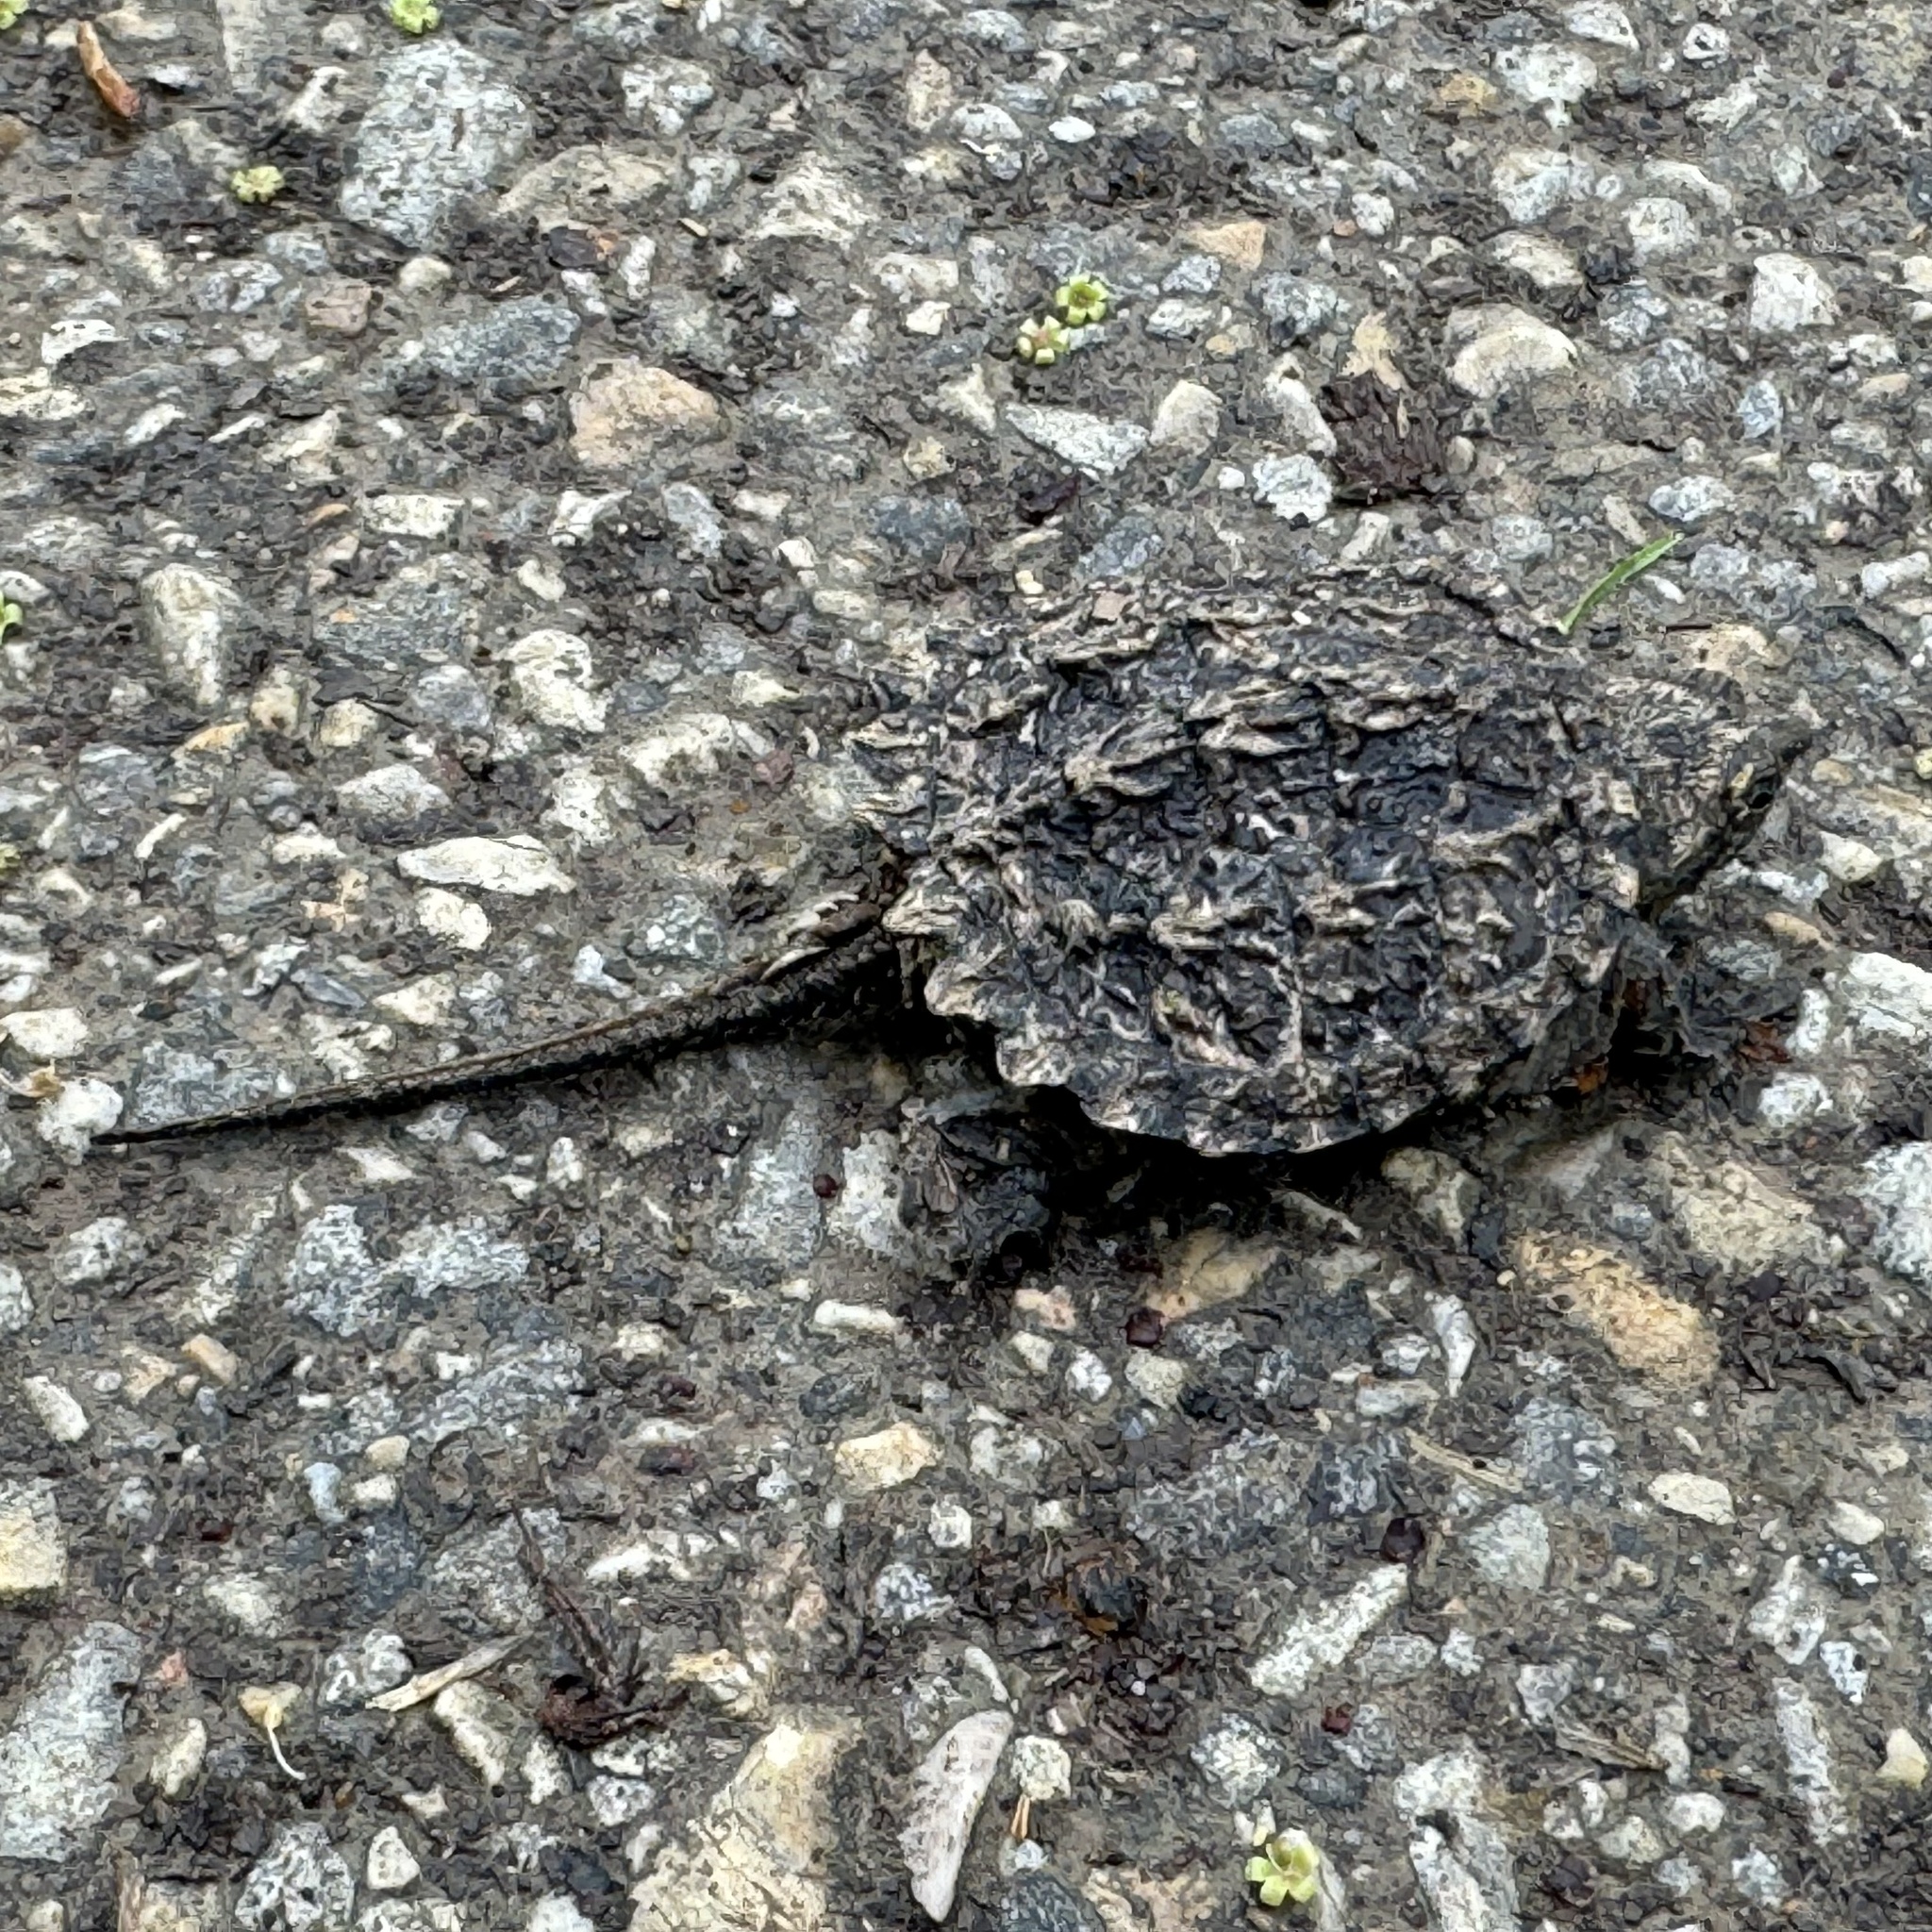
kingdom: Animalia
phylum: Chordata
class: Testudines
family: Chelydridae
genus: Chelydra
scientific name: Chelydra serpentina
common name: Common snapping turtle
